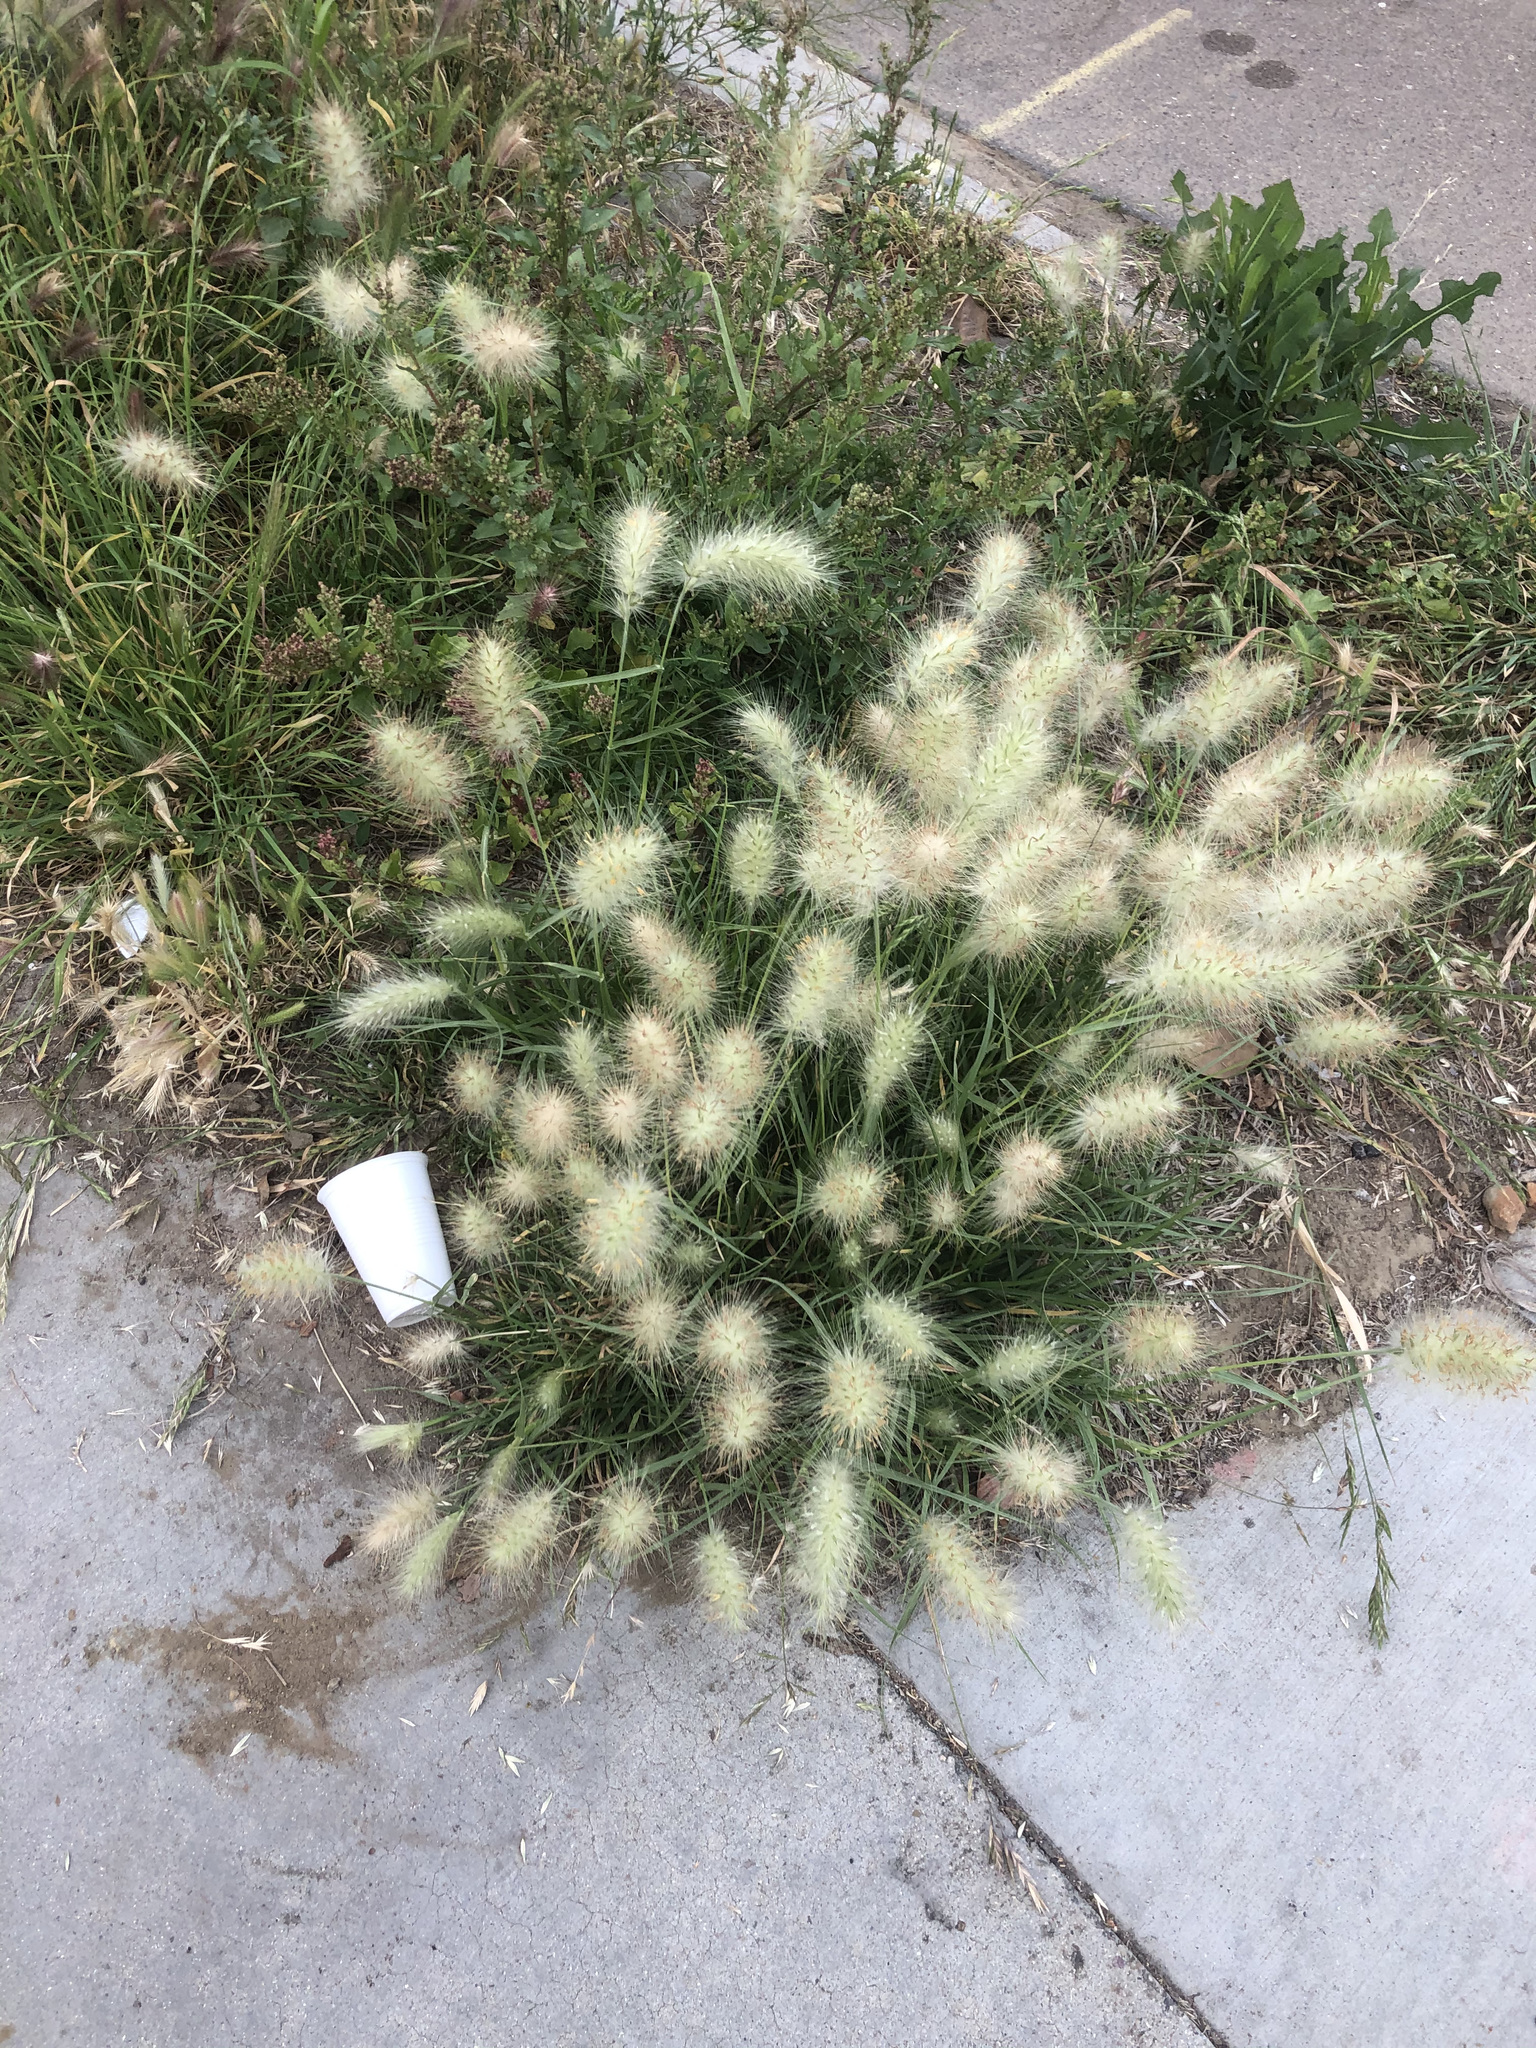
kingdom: Plantae
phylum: Tracheophyta
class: Liliopsida
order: Poales
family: Poaceae
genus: Cenchrus
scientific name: Cenchrus longisetus
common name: Feathertop
